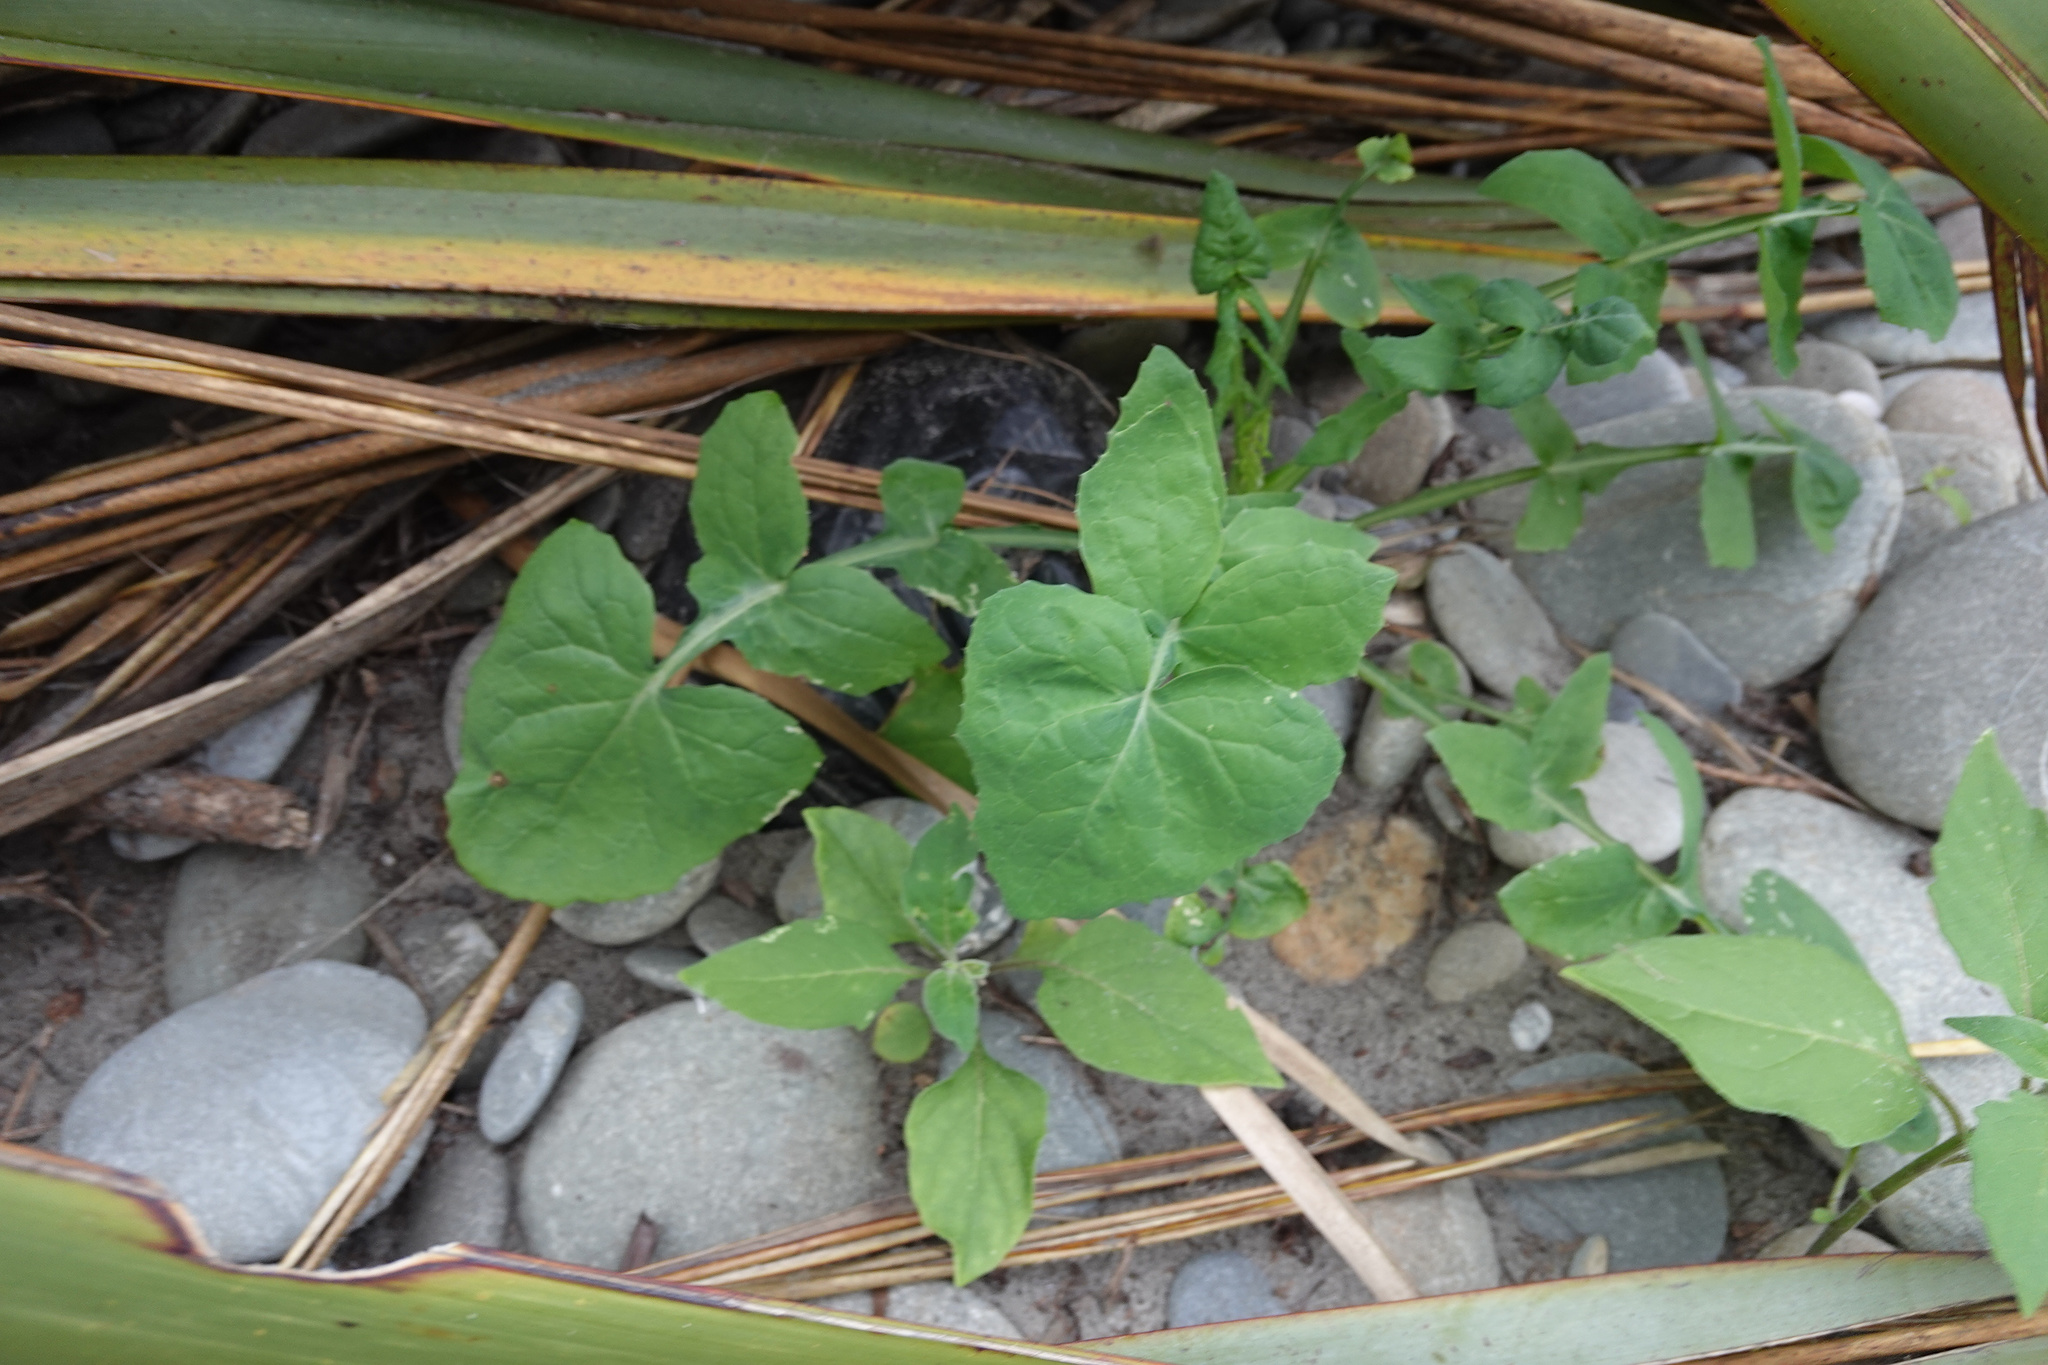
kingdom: Plantae
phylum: Tracheophyta
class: Magnoliopsida
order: Asterales
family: Asteraceae
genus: Sonchus
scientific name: Sonchus oleraceus
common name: Common sowthistle
